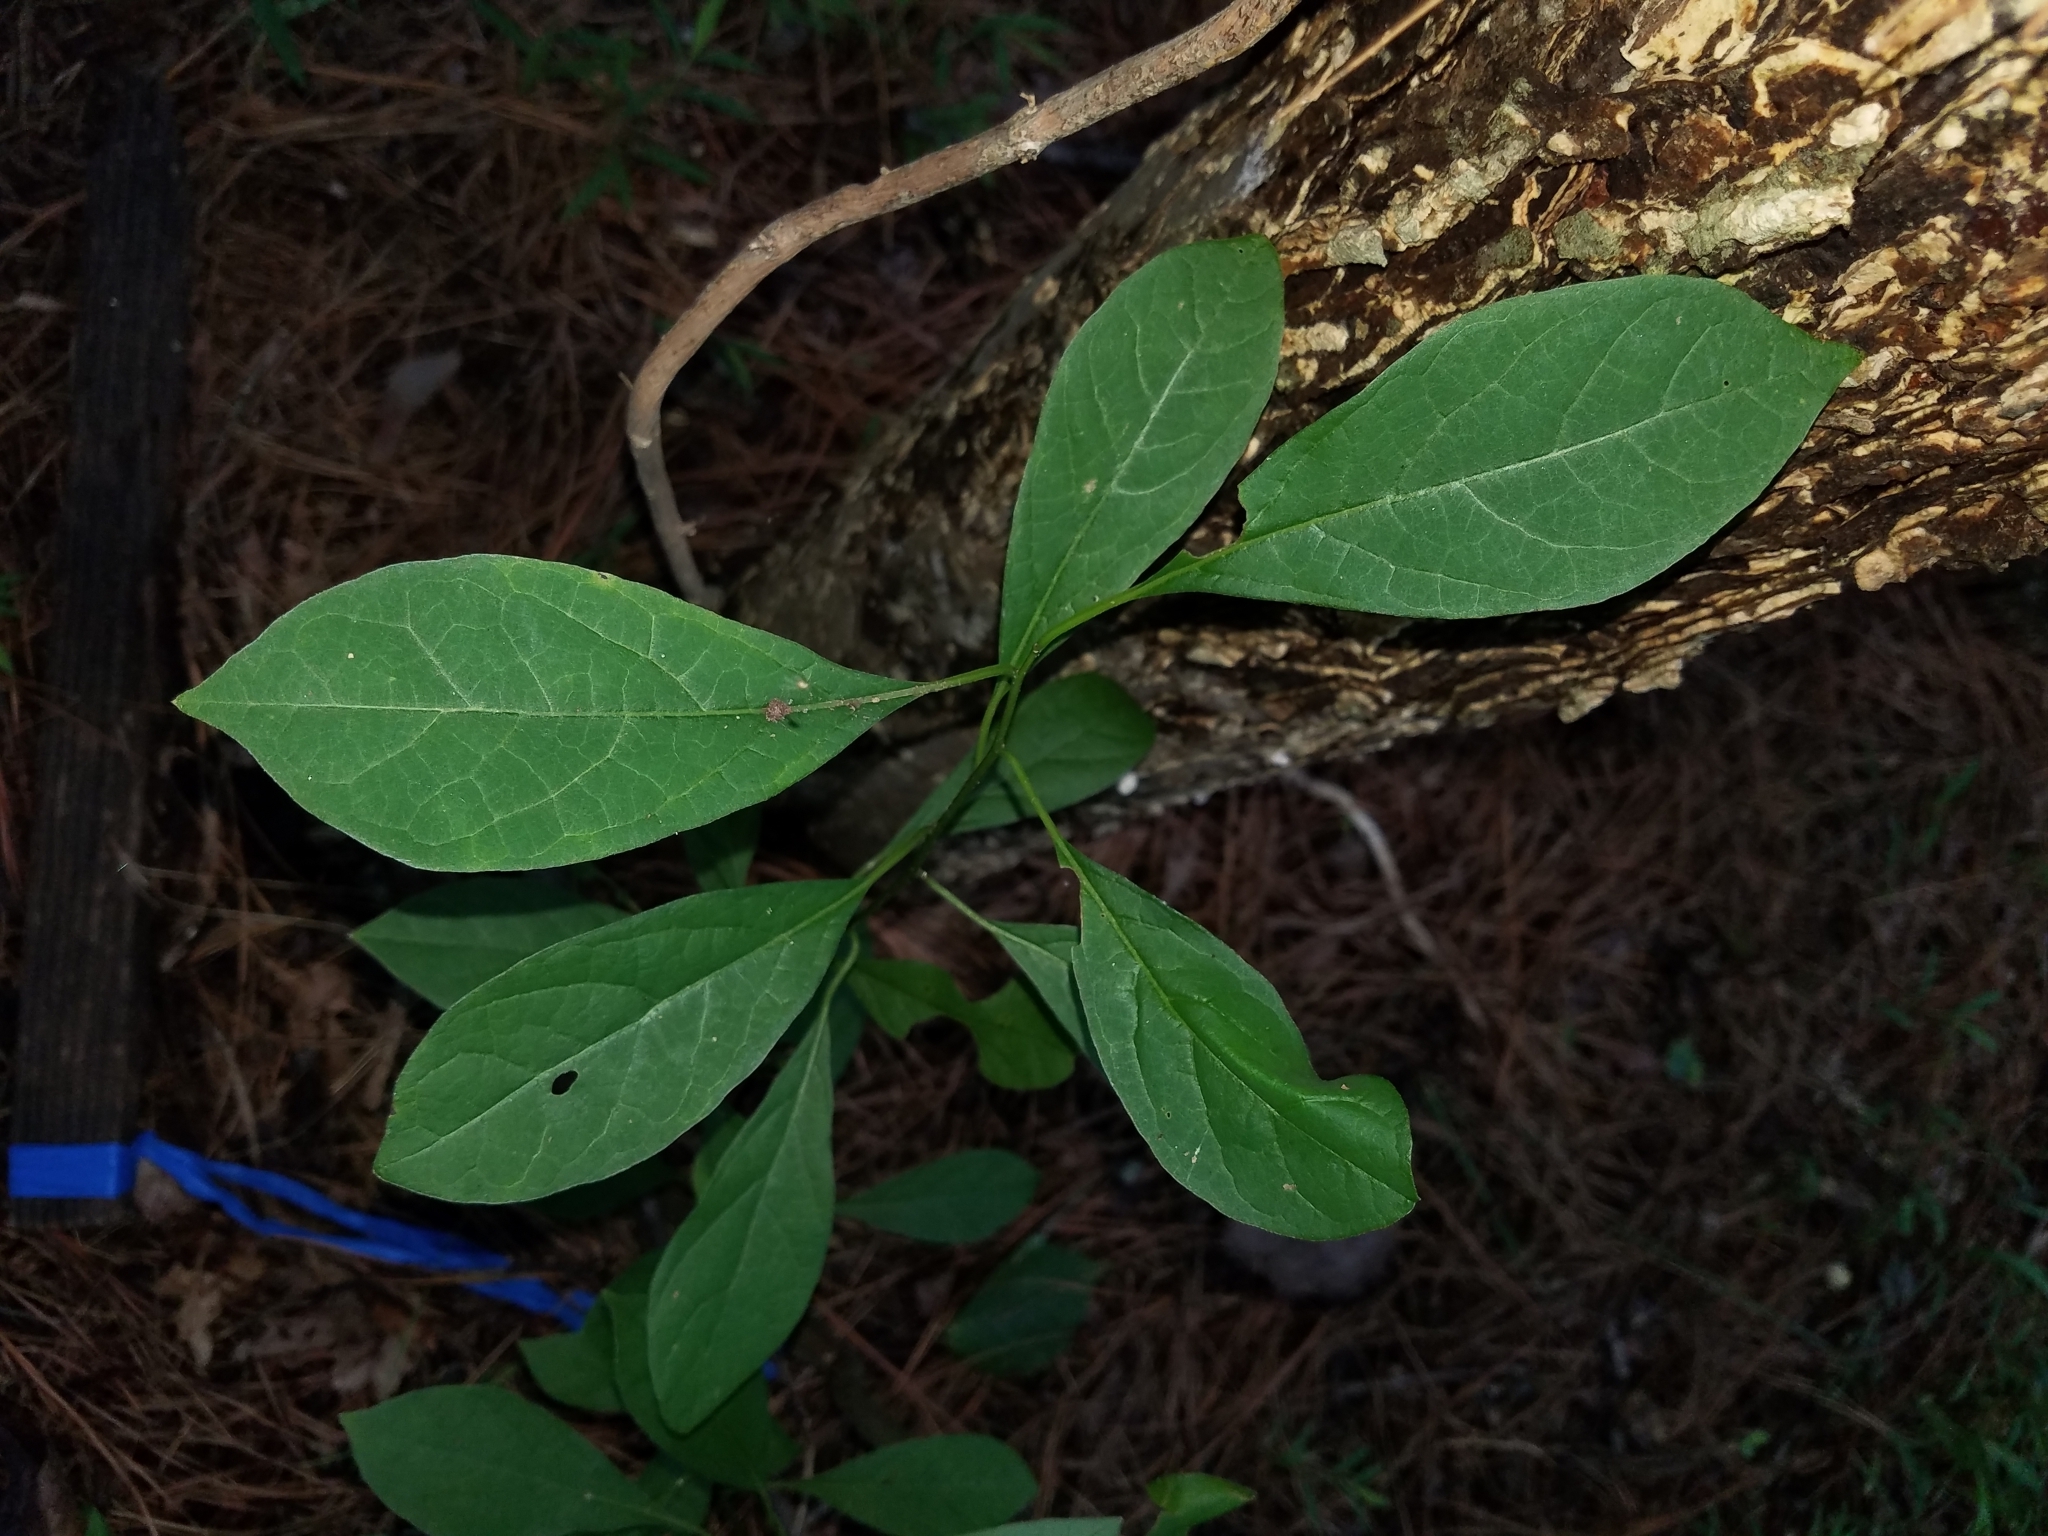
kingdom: Plantae
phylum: Tracheophyta
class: Magnoliopsida
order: Laurales
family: Lauraceae
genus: Lindera
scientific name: Lindera benzoin
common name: Spicebush
